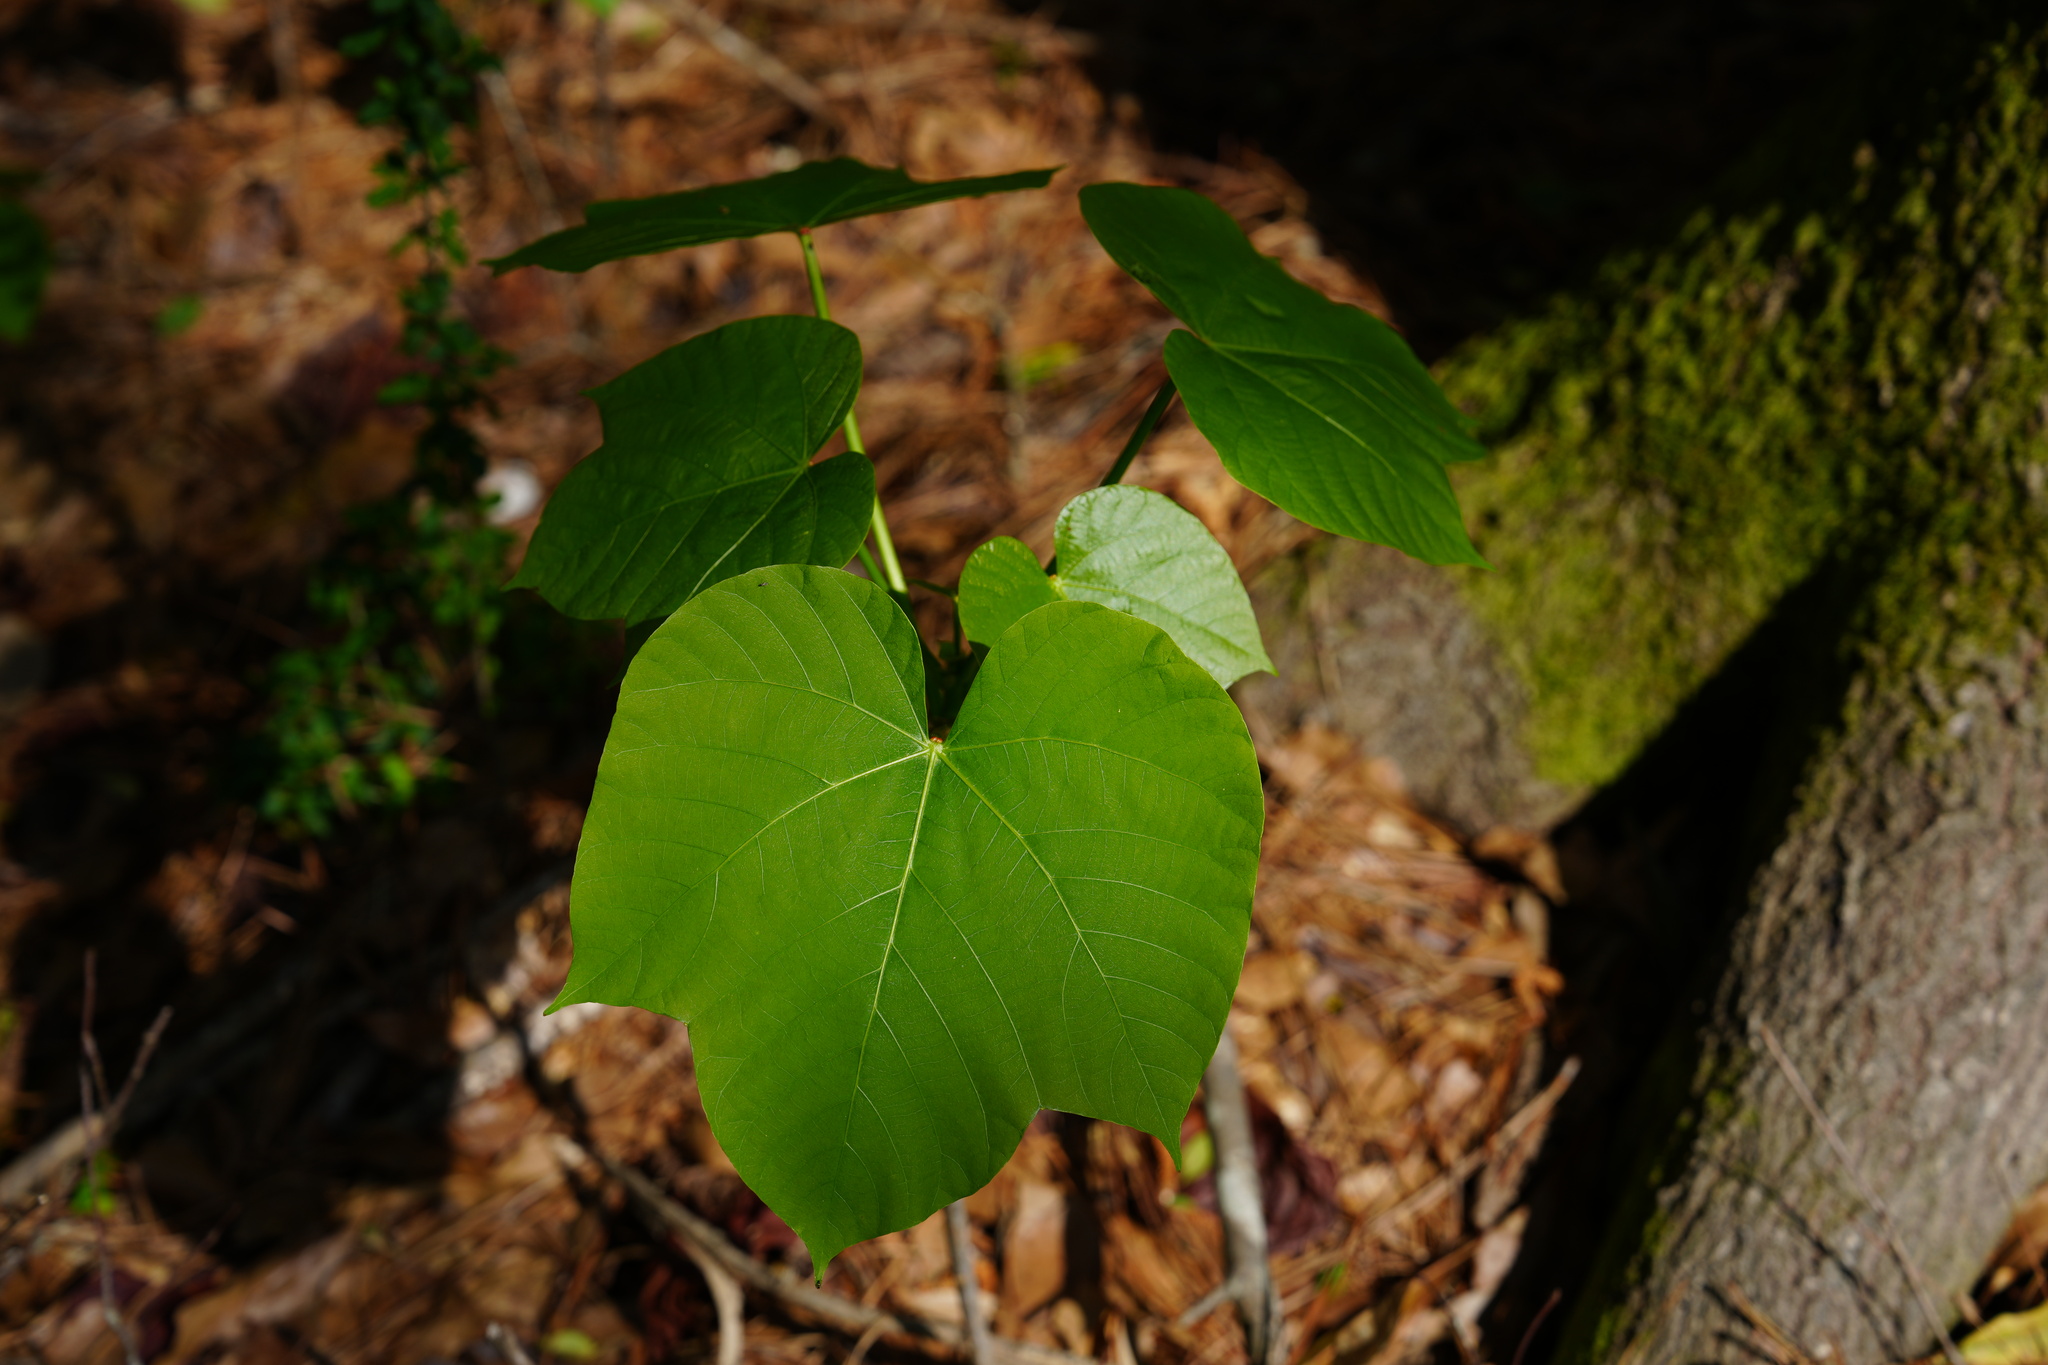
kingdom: Plantae
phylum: Tracheophyta
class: Magnoliopsida
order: Malpighiales
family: Euphorbiaceae
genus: Vernicia
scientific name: Vernicia fordii
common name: Tungoil tree
